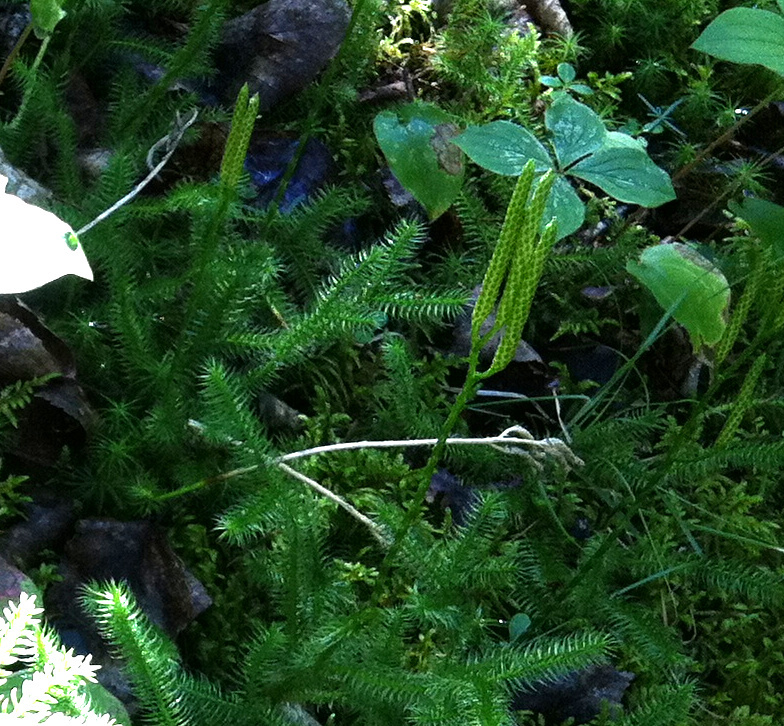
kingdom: Plantae
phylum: Tracheophyta
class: Lycopodiopsida
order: Lycopodiales
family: Lycopodiaceae
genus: Lycopodium
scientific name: Lycopodium clavatum
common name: Stag's-horn clubmoss
